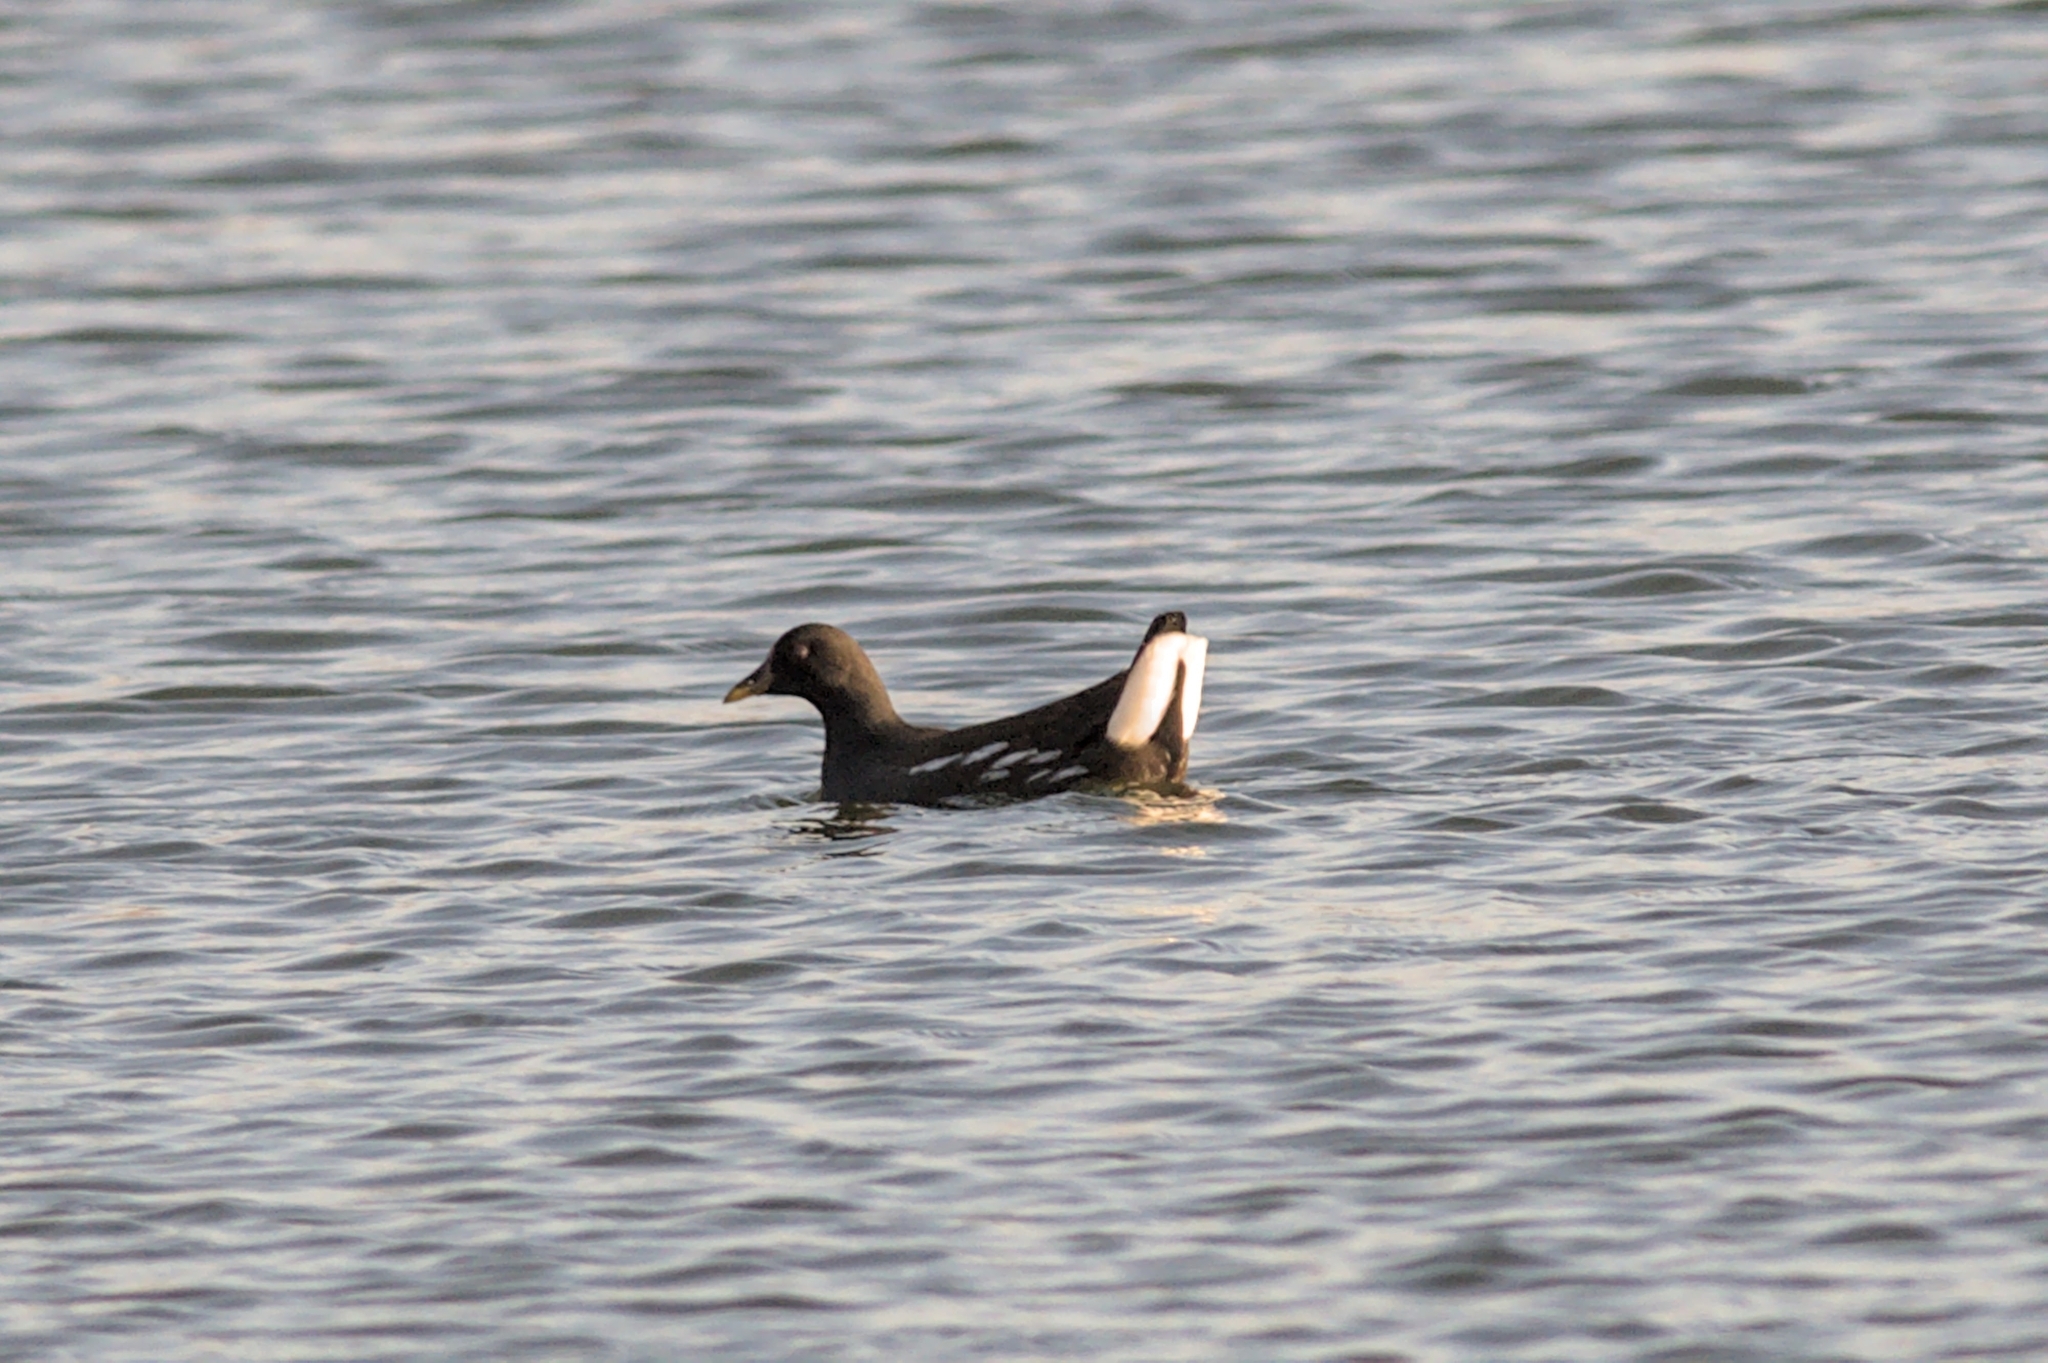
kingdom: Animalia
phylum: Chordata
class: Aves
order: Gruiformes
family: Rallidae
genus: Gallinula
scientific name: Gallinula chloropus
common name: Common moorhen
